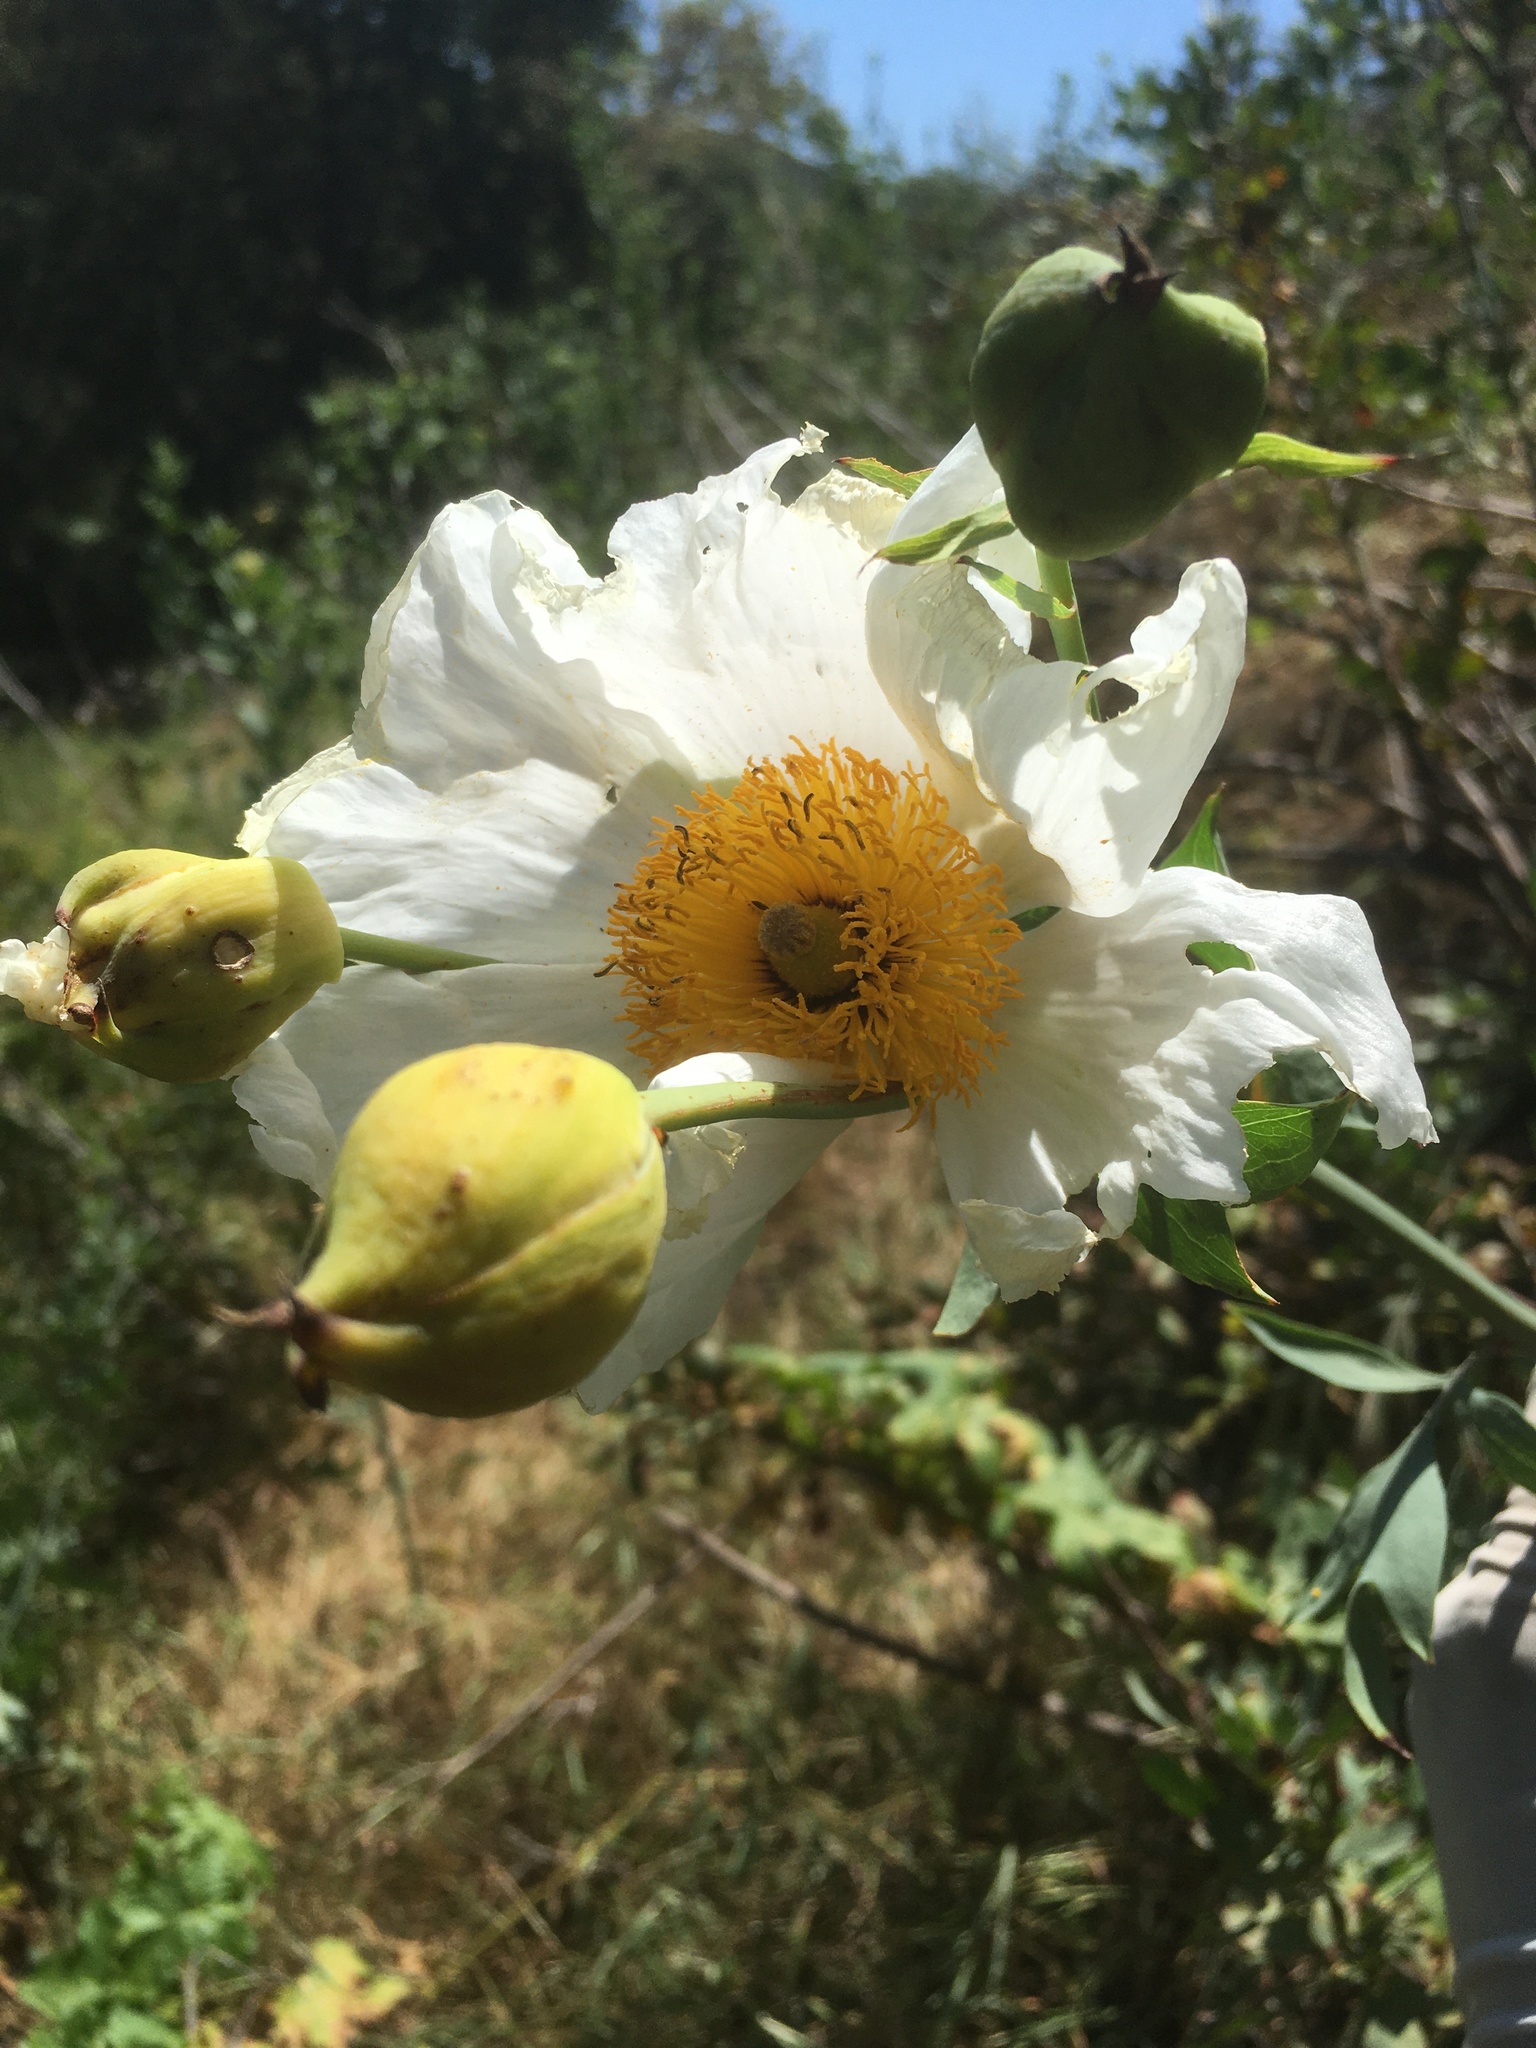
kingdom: Plantae
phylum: Tracheophyta
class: Magnoliopsida
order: Ranunculales
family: Papaveraceae
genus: Romneya
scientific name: Romneya coulteri
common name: California tree-poppy
